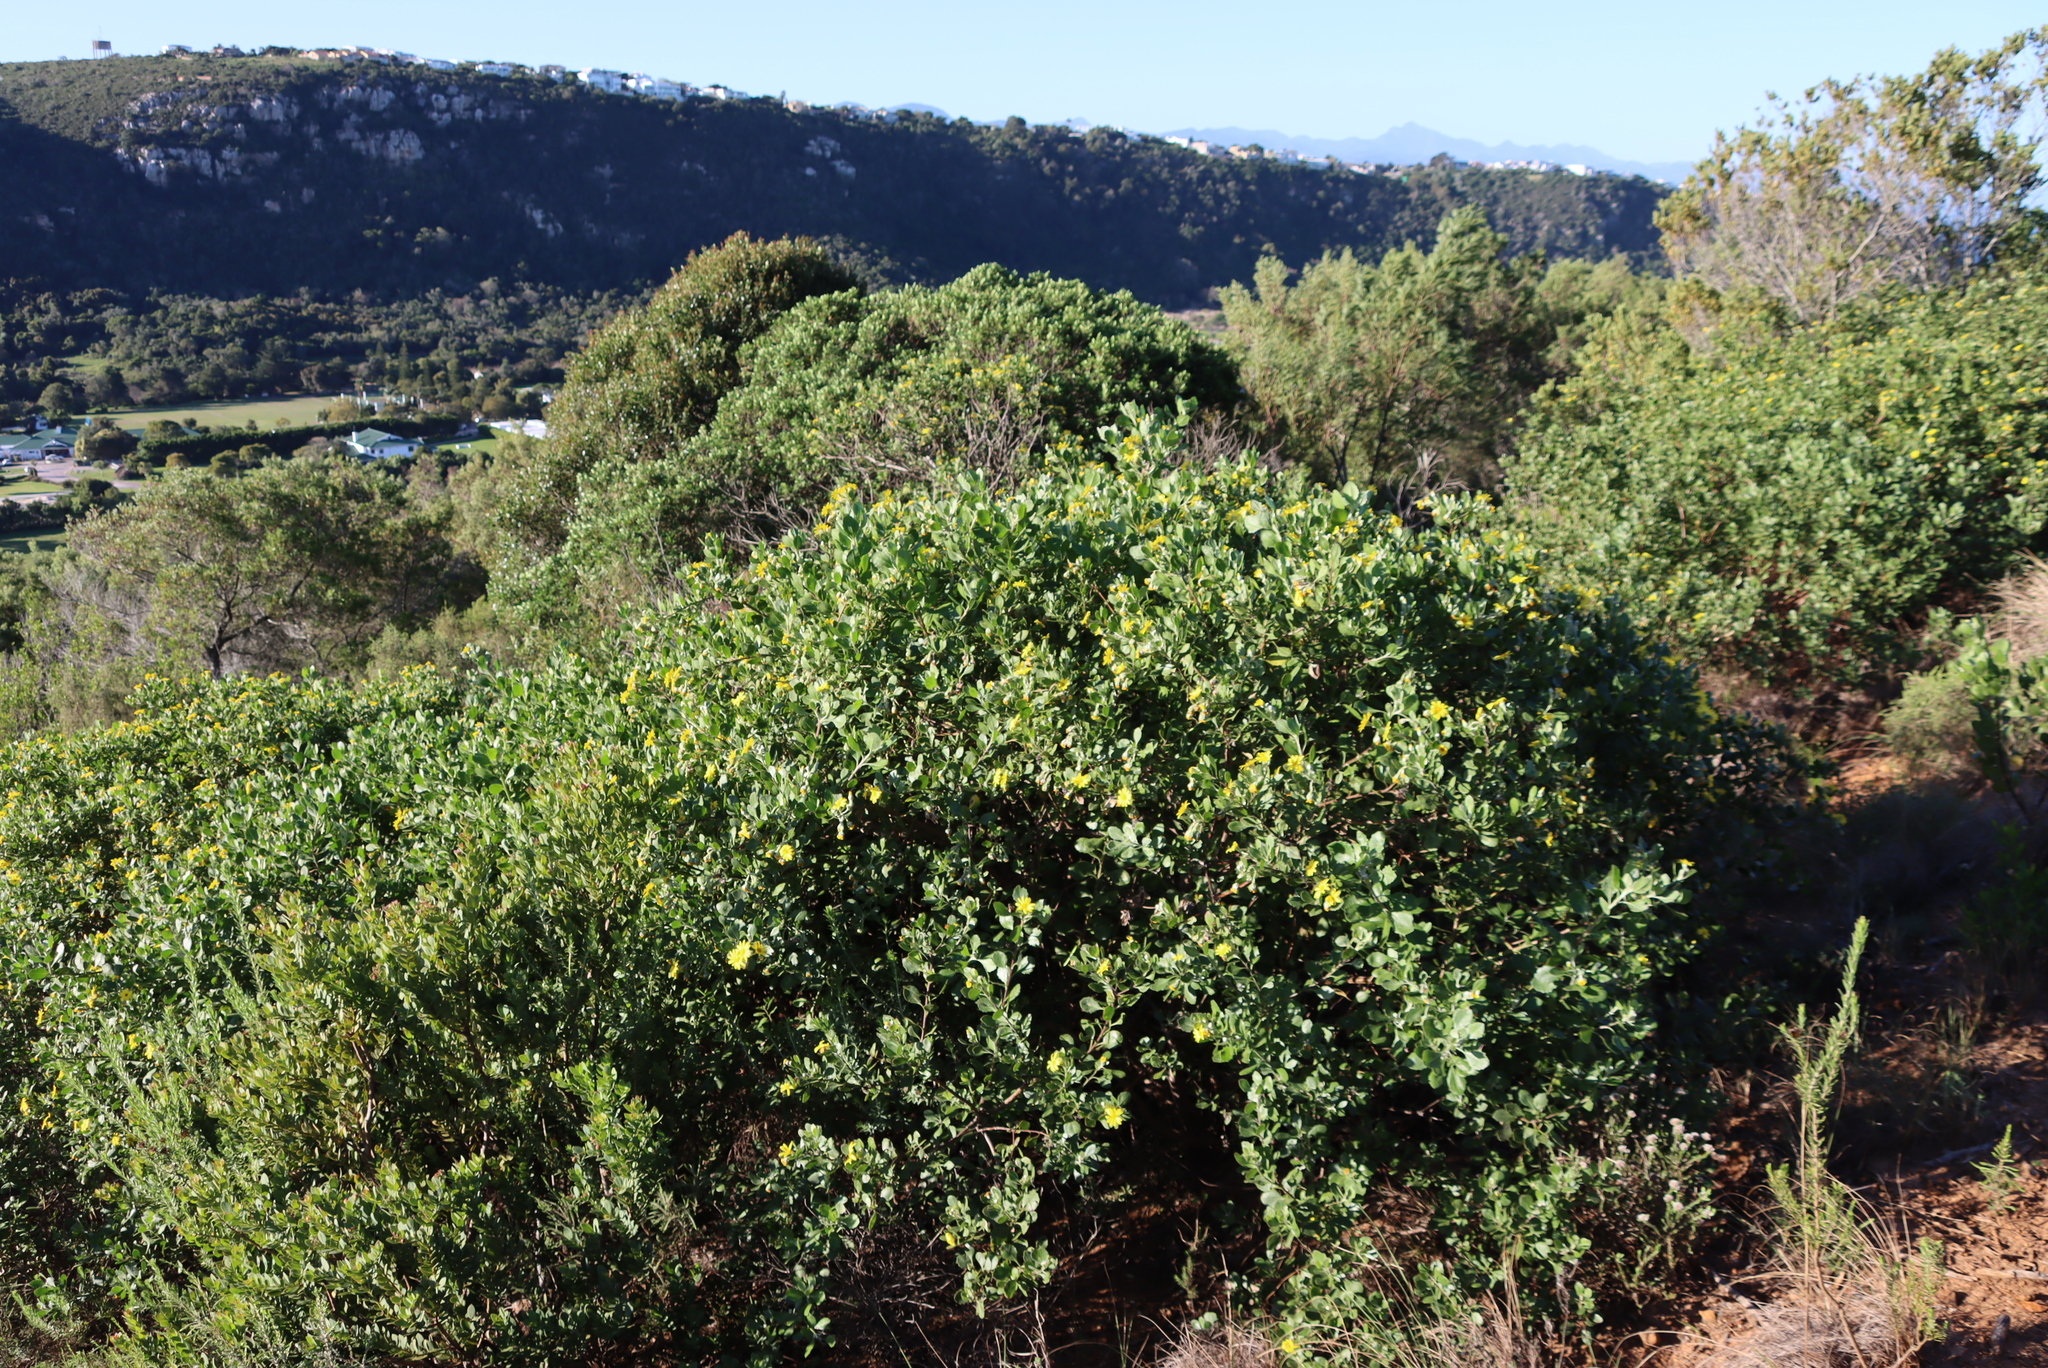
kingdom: Plantae
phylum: Tracheophyta
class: Magnoliopsida
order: Asterales
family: Asteraceae
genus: Osteospermum
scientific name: Osteospermum moniliferum
